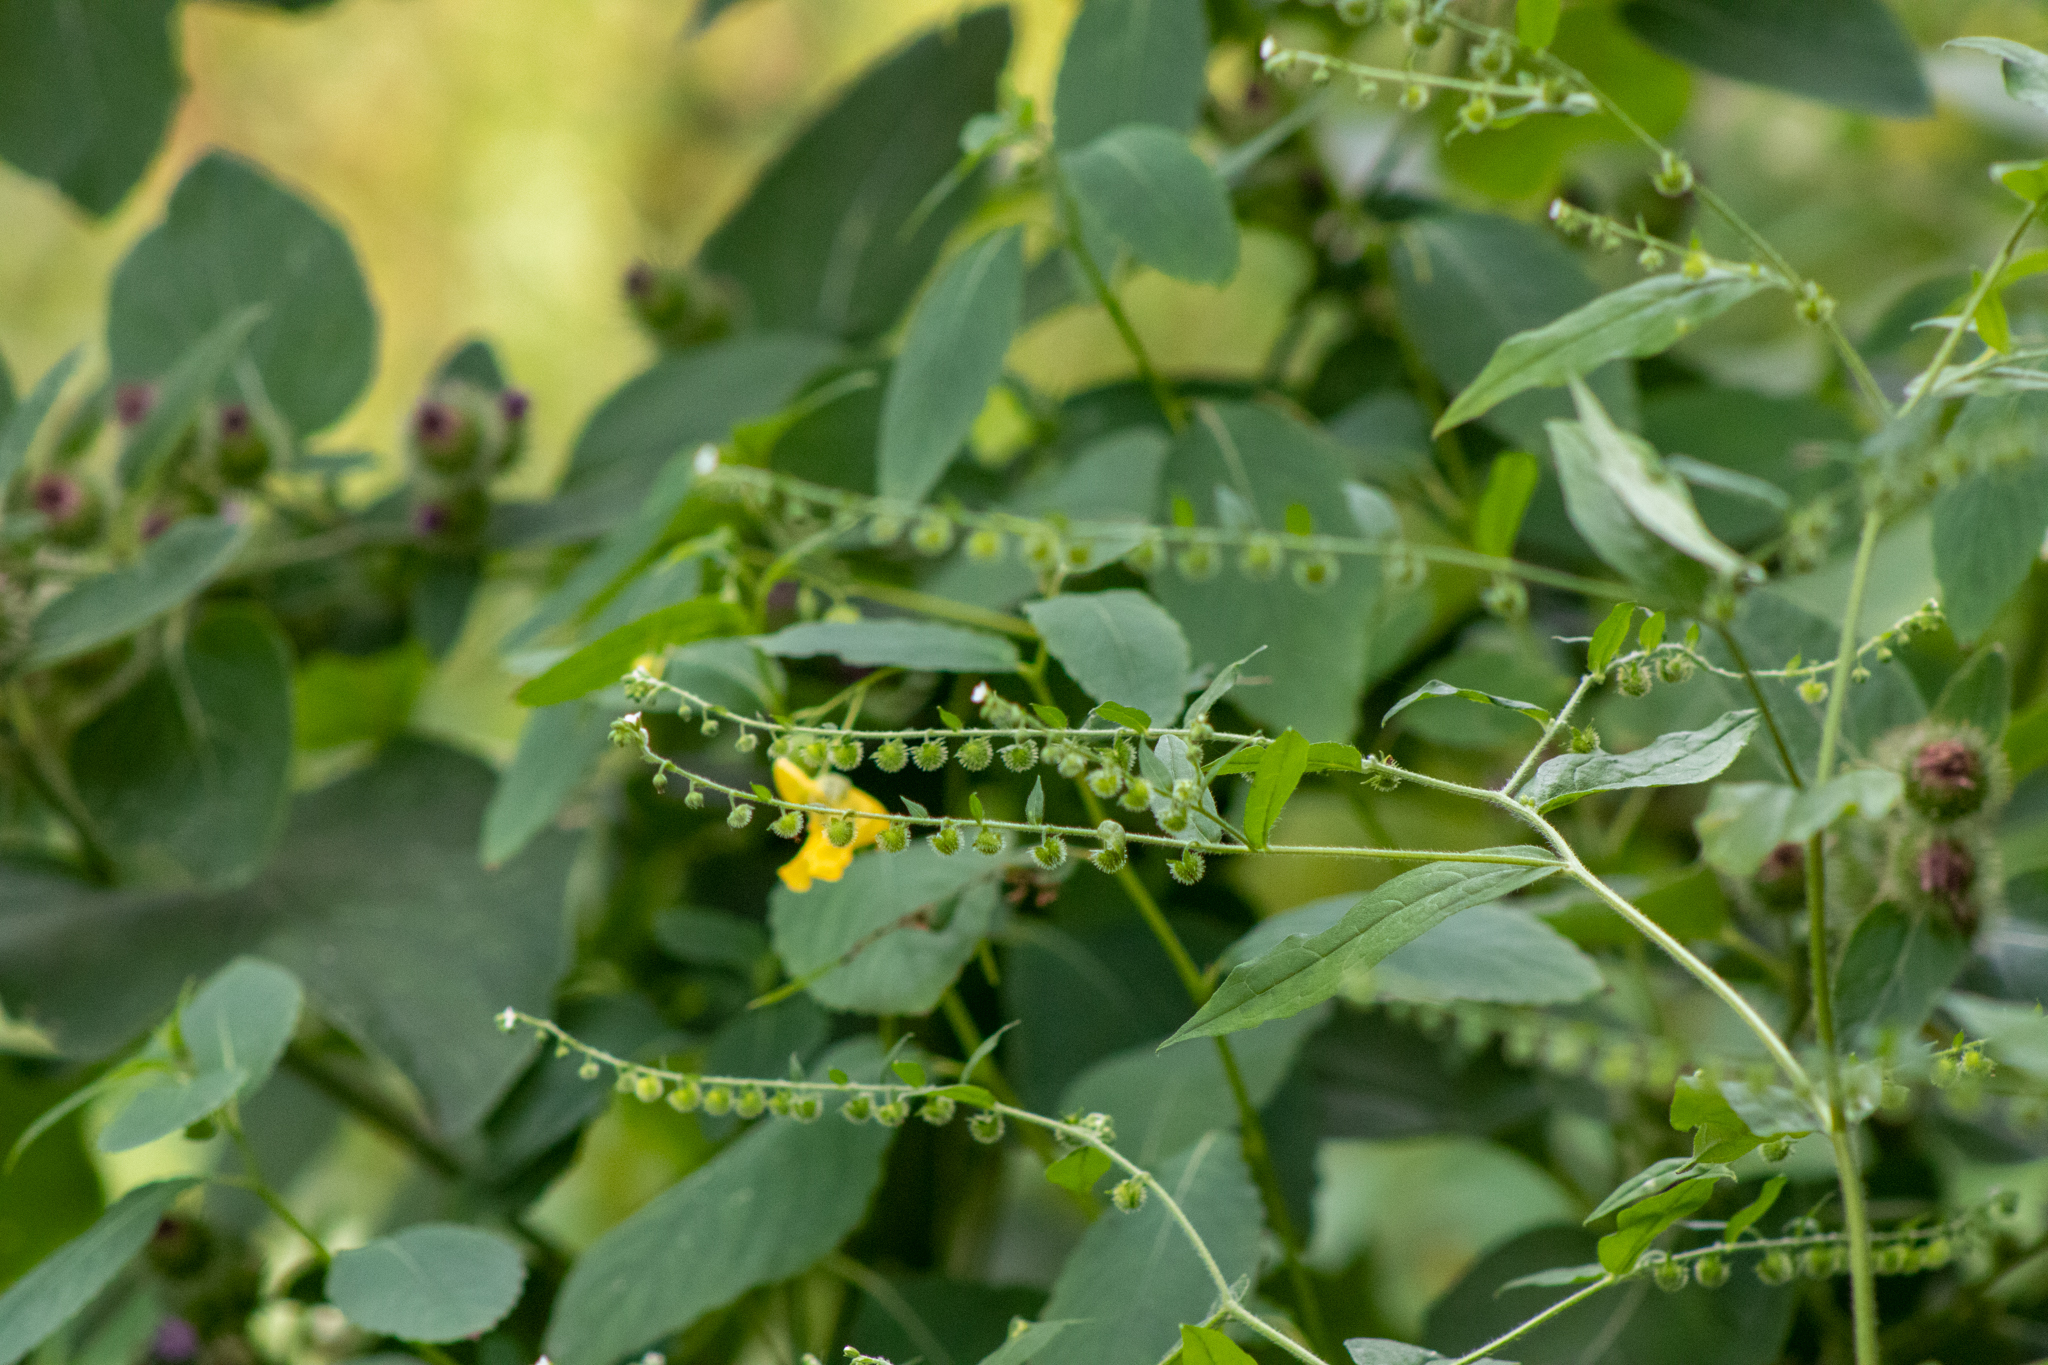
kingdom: Plantae
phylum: Tracheophyta
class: Magnoliopsida
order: Boraginales
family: Boraginaceae
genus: Hackelia
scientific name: Hackelia virginiana
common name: Beggar's-lice
